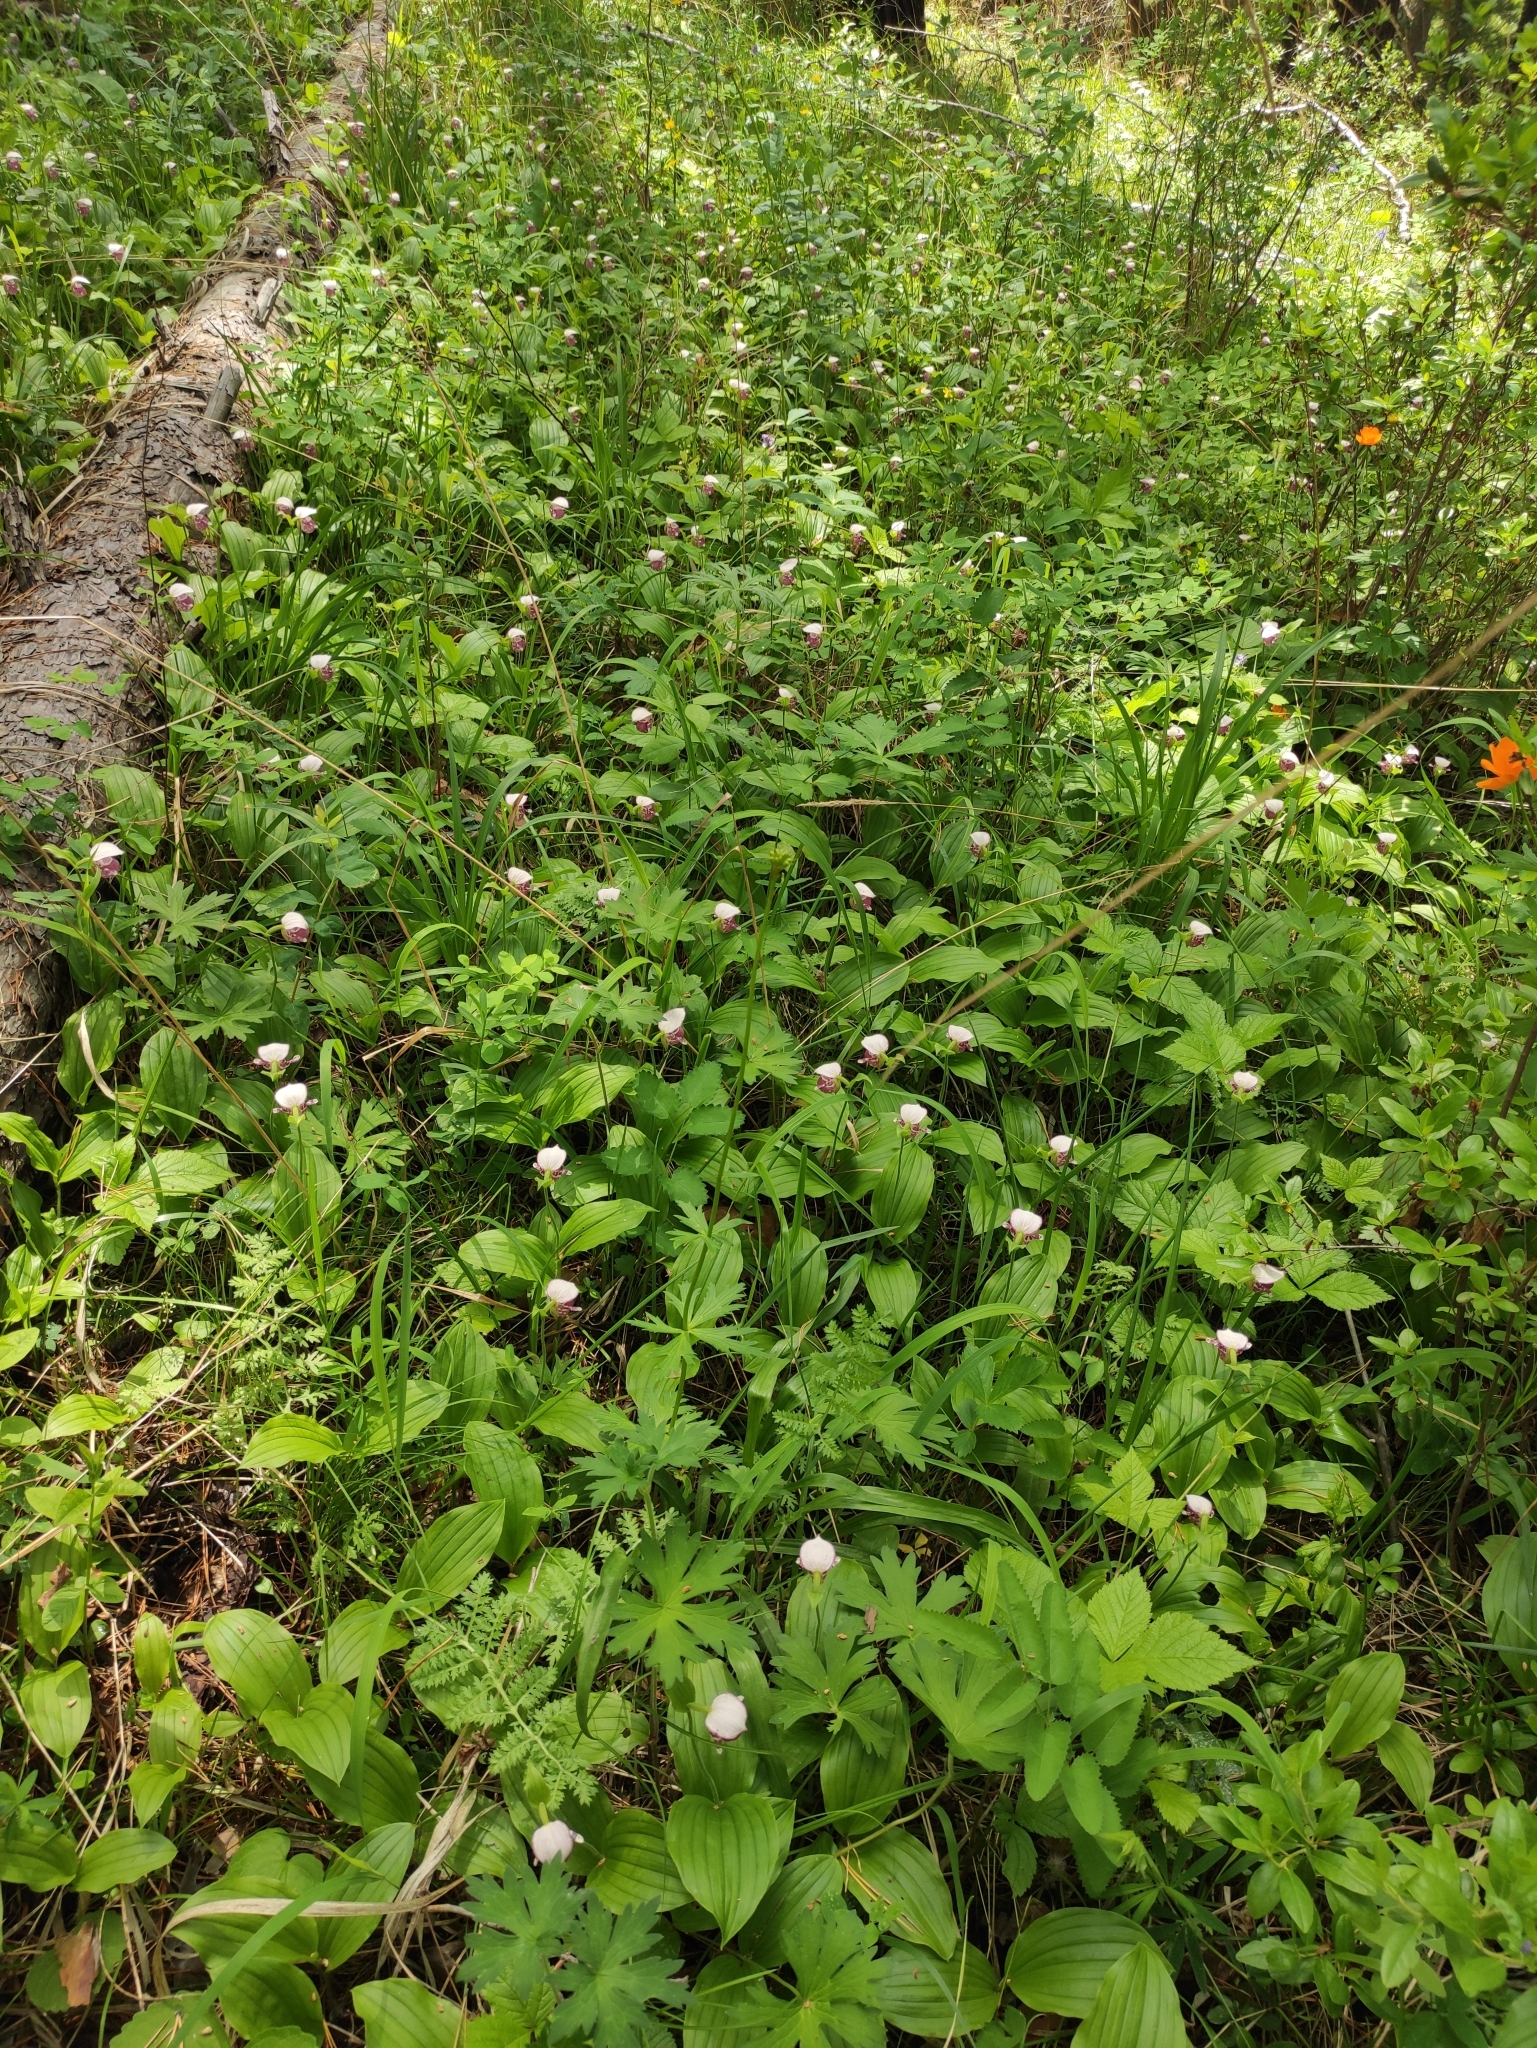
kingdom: Plantae
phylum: Tracheophyta
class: Liliopsida
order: Asparagales
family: Orchidaceae
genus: Cypripedium
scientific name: Cypripedium guttatum
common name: Pink lady slipper
